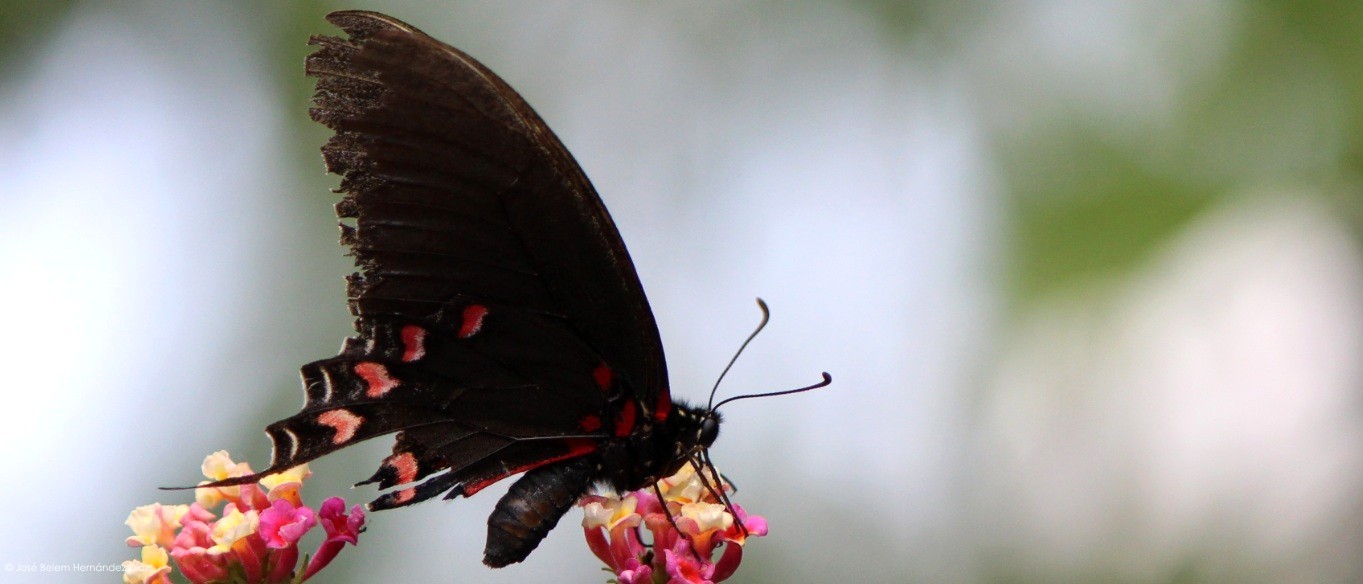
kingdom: Animalia
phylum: Arthropoda
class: Insecta
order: Lepidoptera
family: Papilionidae
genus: Mimoides
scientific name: Mimoides thymbraeus
